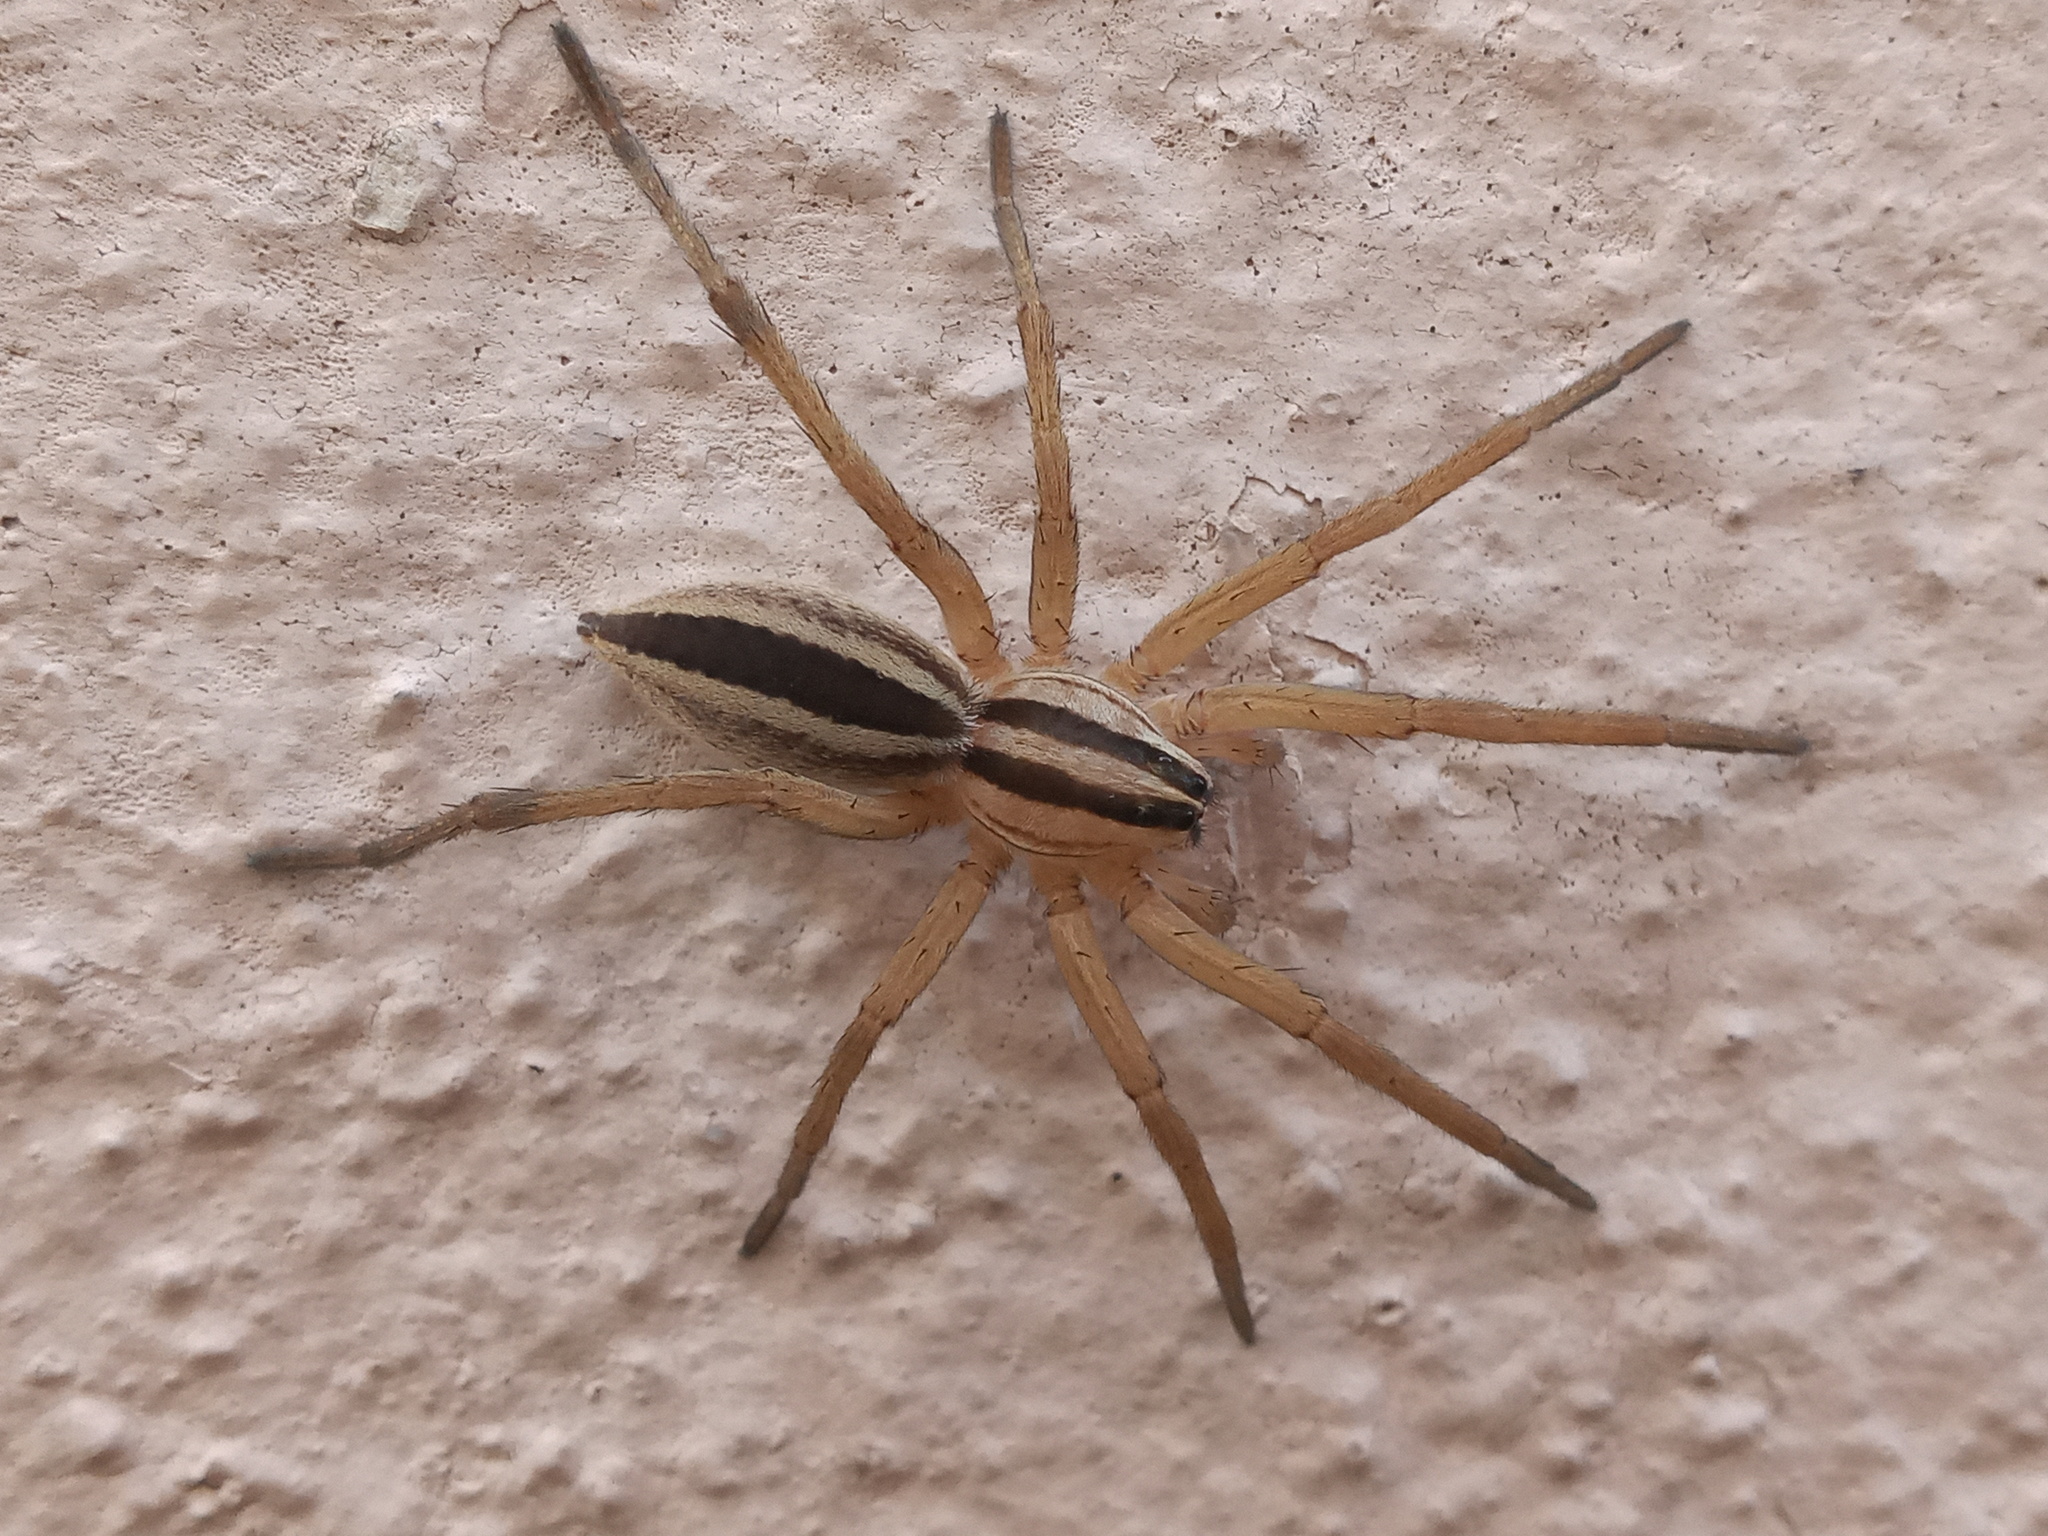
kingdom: Animalia
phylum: Arthropoda
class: Arachnida
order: Araneae
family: Lycosidae
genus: Rabidosa
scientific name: Rabidosa punctulata
